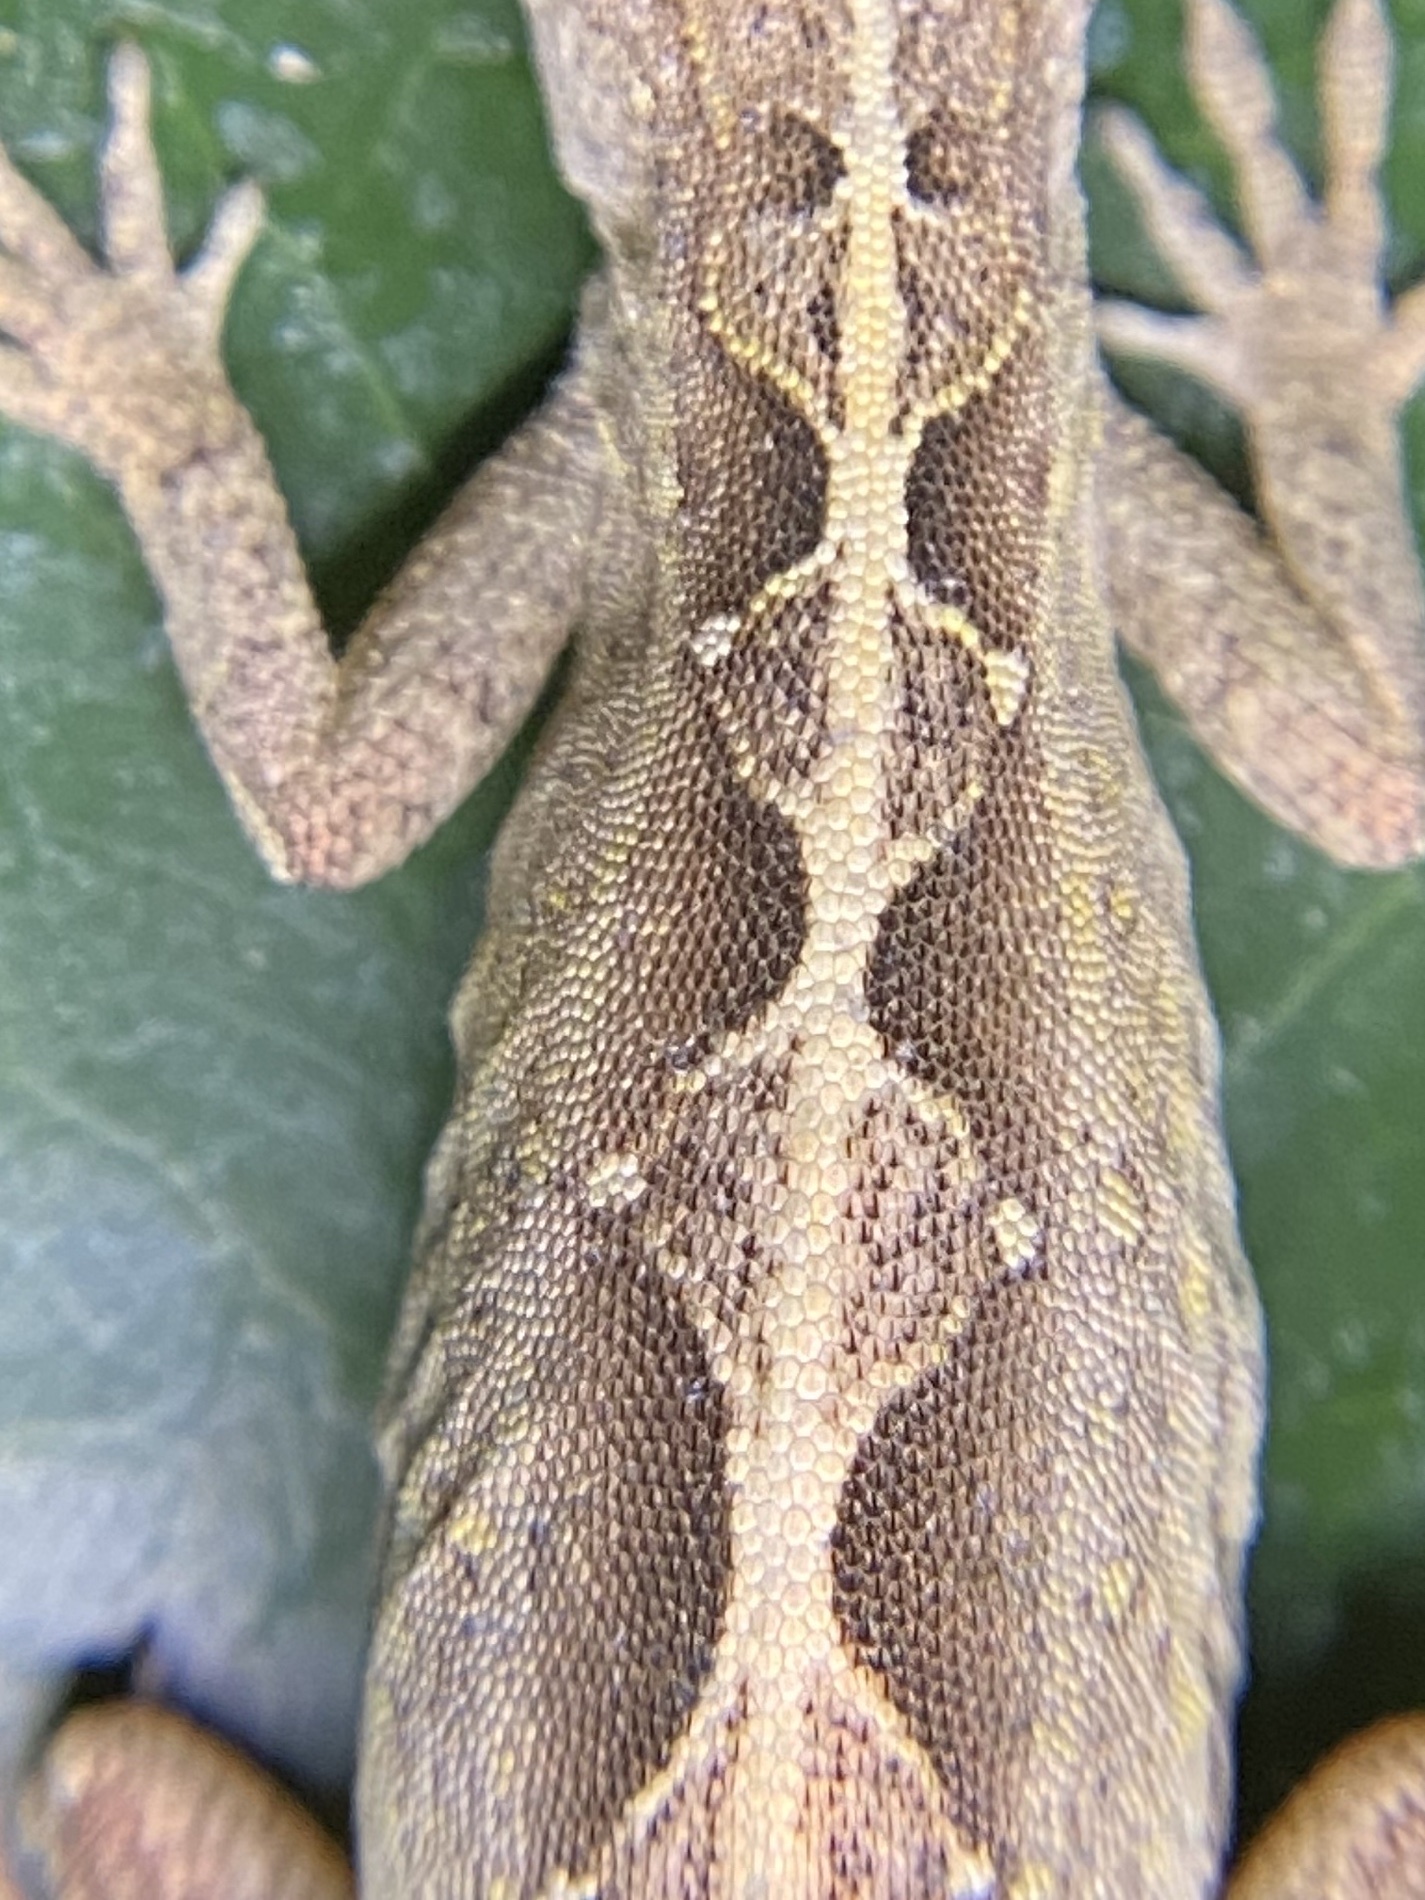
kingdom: Animalia
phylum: Chordata
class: Squamata
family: Dactyloidae
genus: Anolis
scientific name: Anolis sagrei
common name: Brown anole
